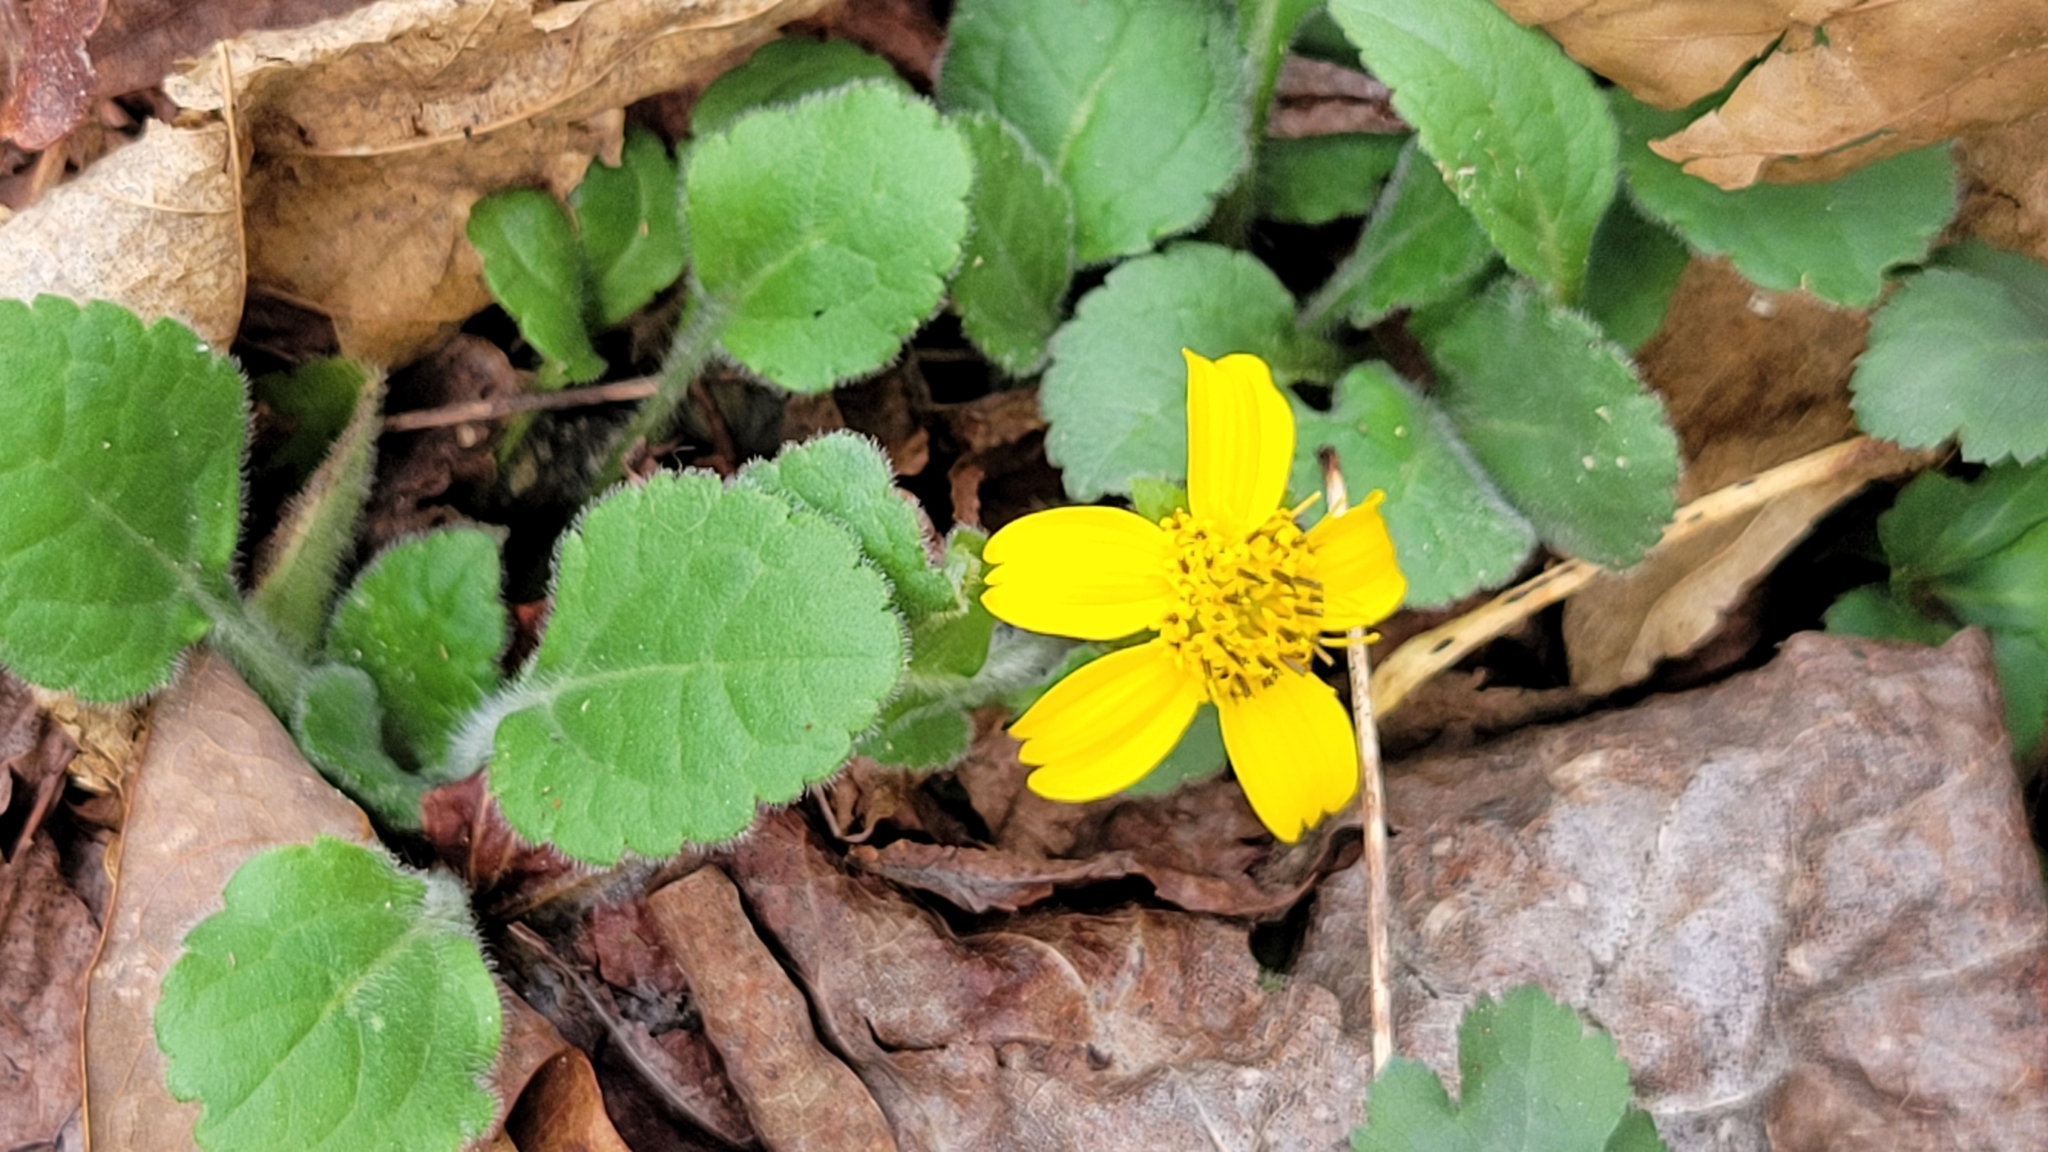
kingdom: Plantae
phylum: Tracheophyta
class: Magnoliopsida
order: Asterales
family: Asteraceae
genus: Chrysogonum
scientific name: Chrysogonum virginianum
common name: Golden-knee
